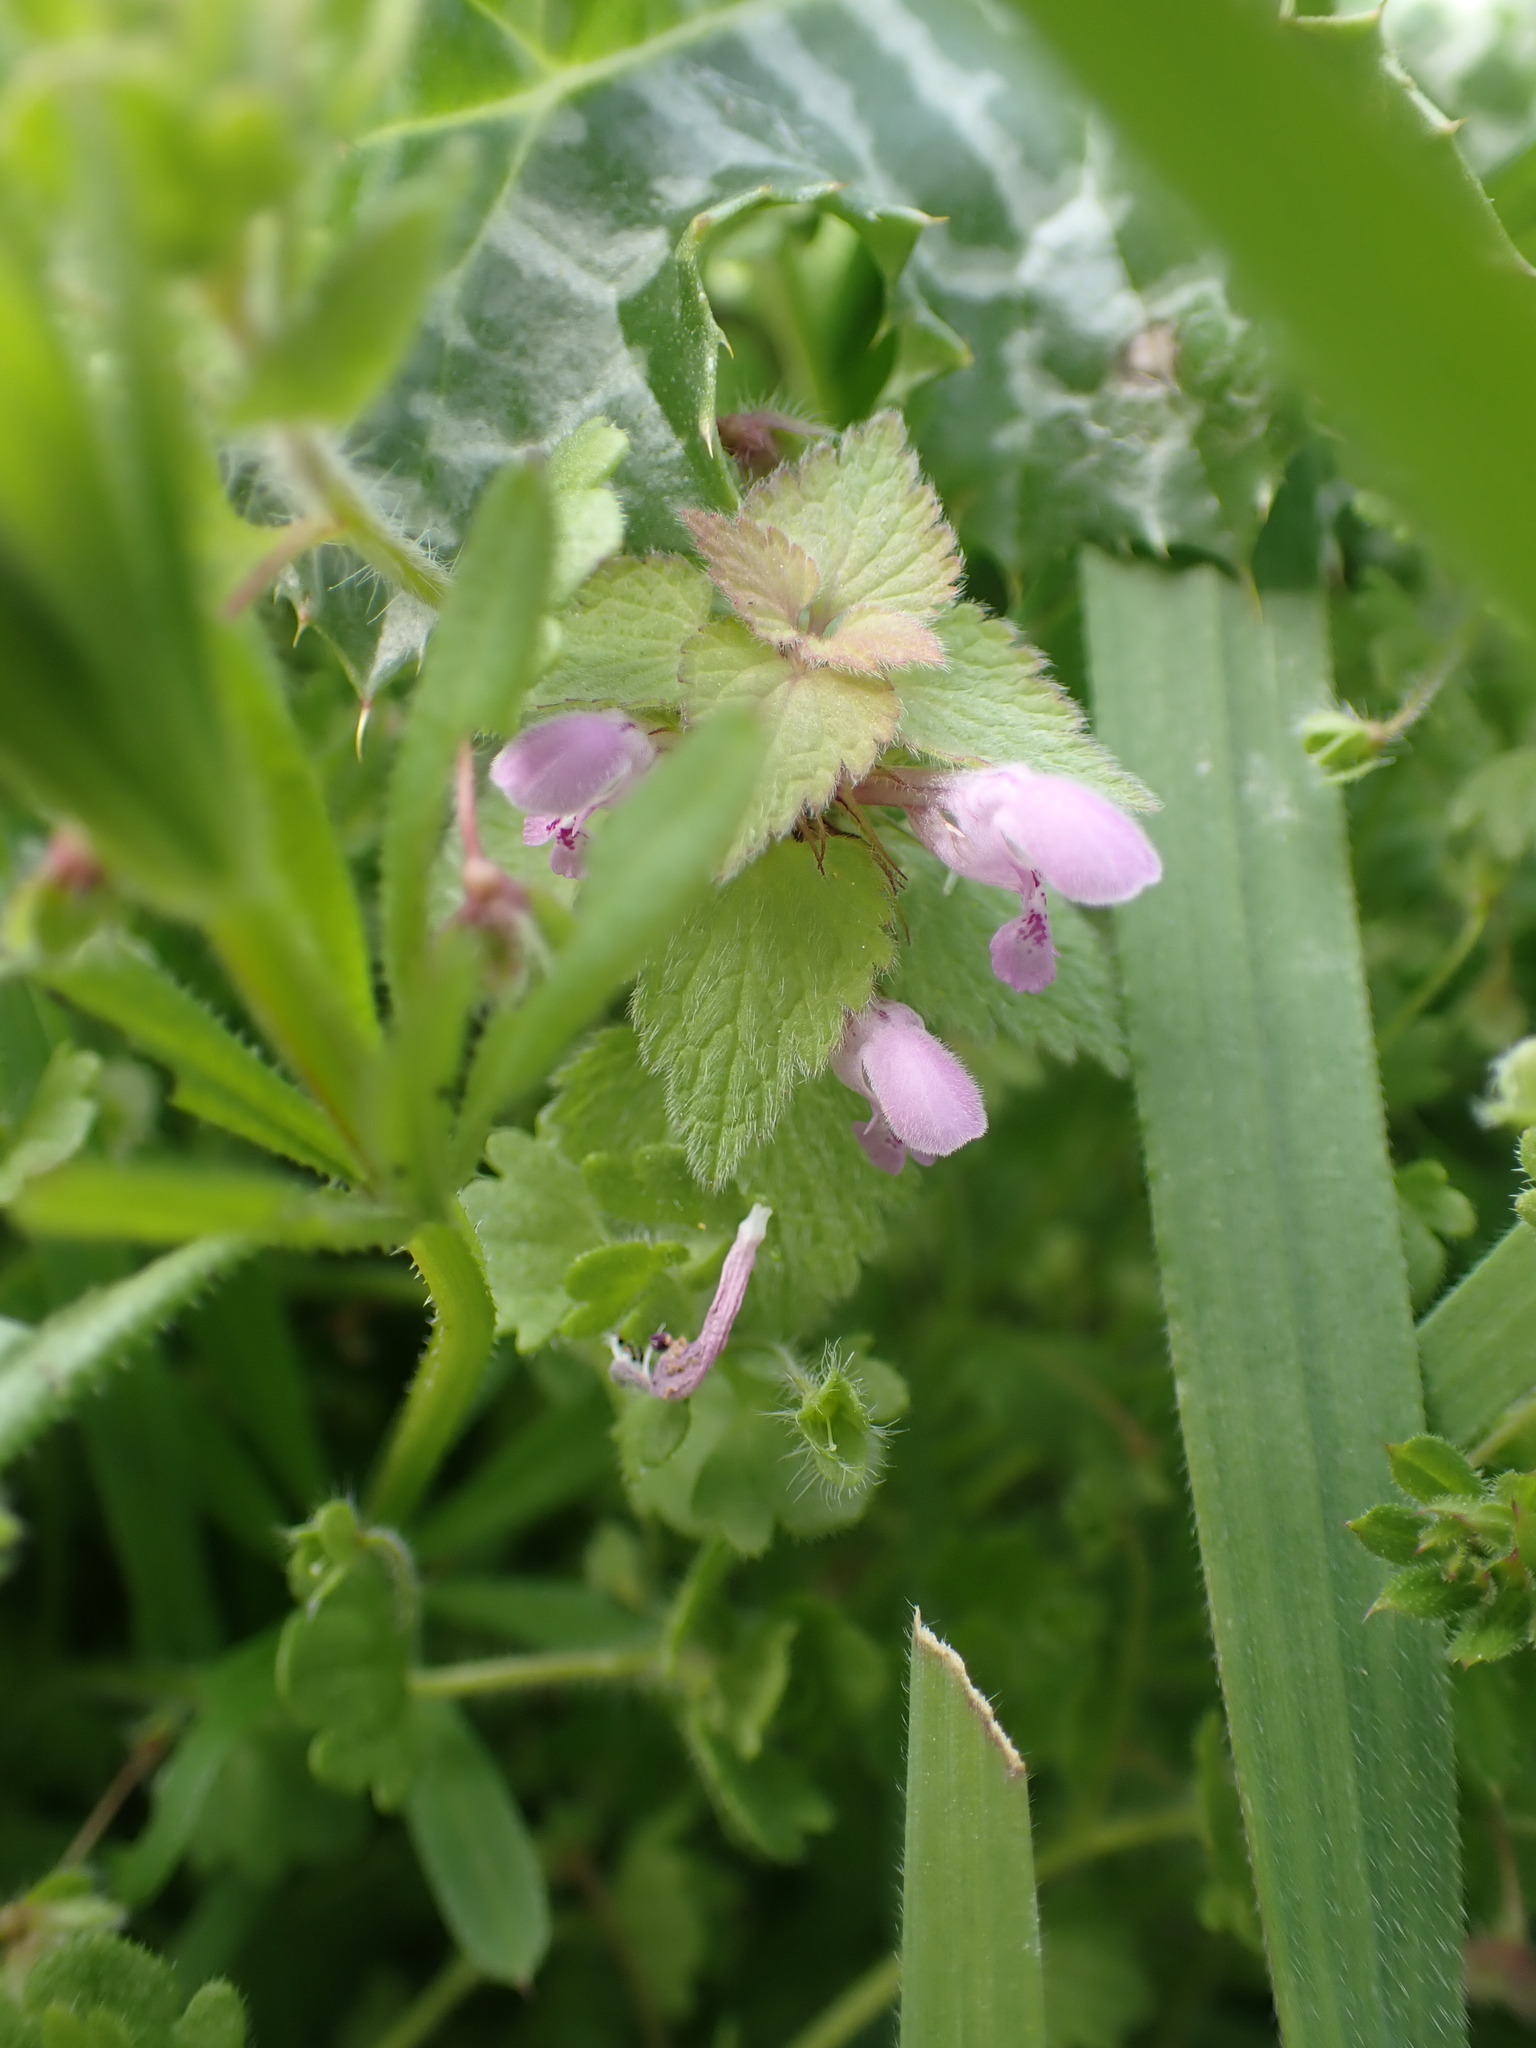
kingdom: Plantae
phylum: Tracheophyta
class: Magnoliopsida
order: Lamiales
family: Lamiaceae
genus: Lamium
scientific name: Lamium purpureum
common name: Red dead-nettle
